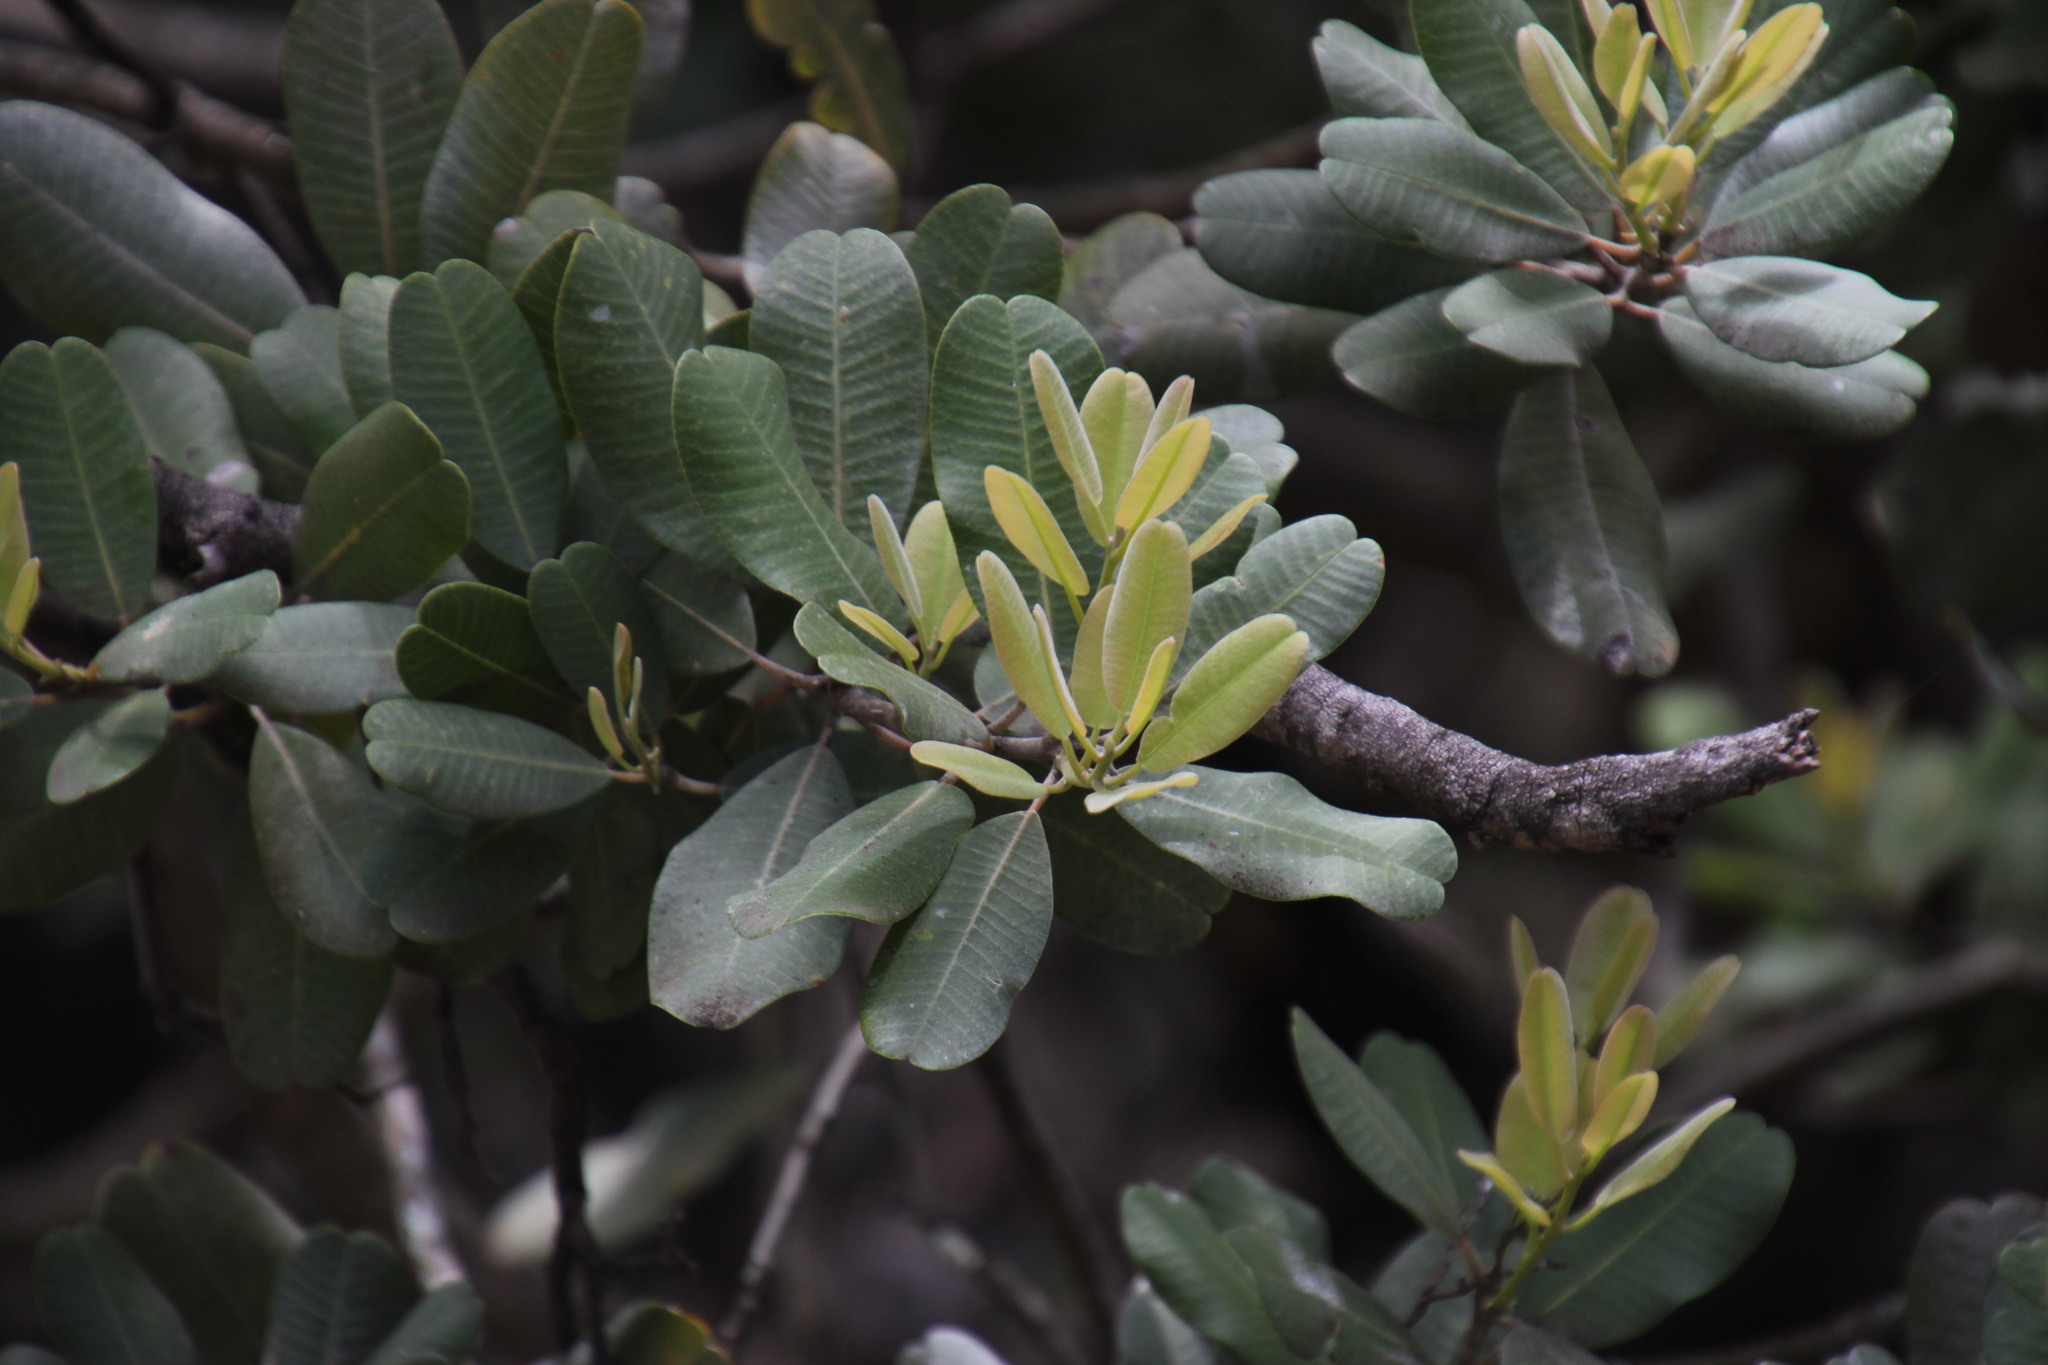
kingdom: Plantae
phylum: Tracheophyta
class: Magnoliopsida
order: Sapindales
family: Anacardiaceae
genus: Heeria
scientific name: Heeria argentea
